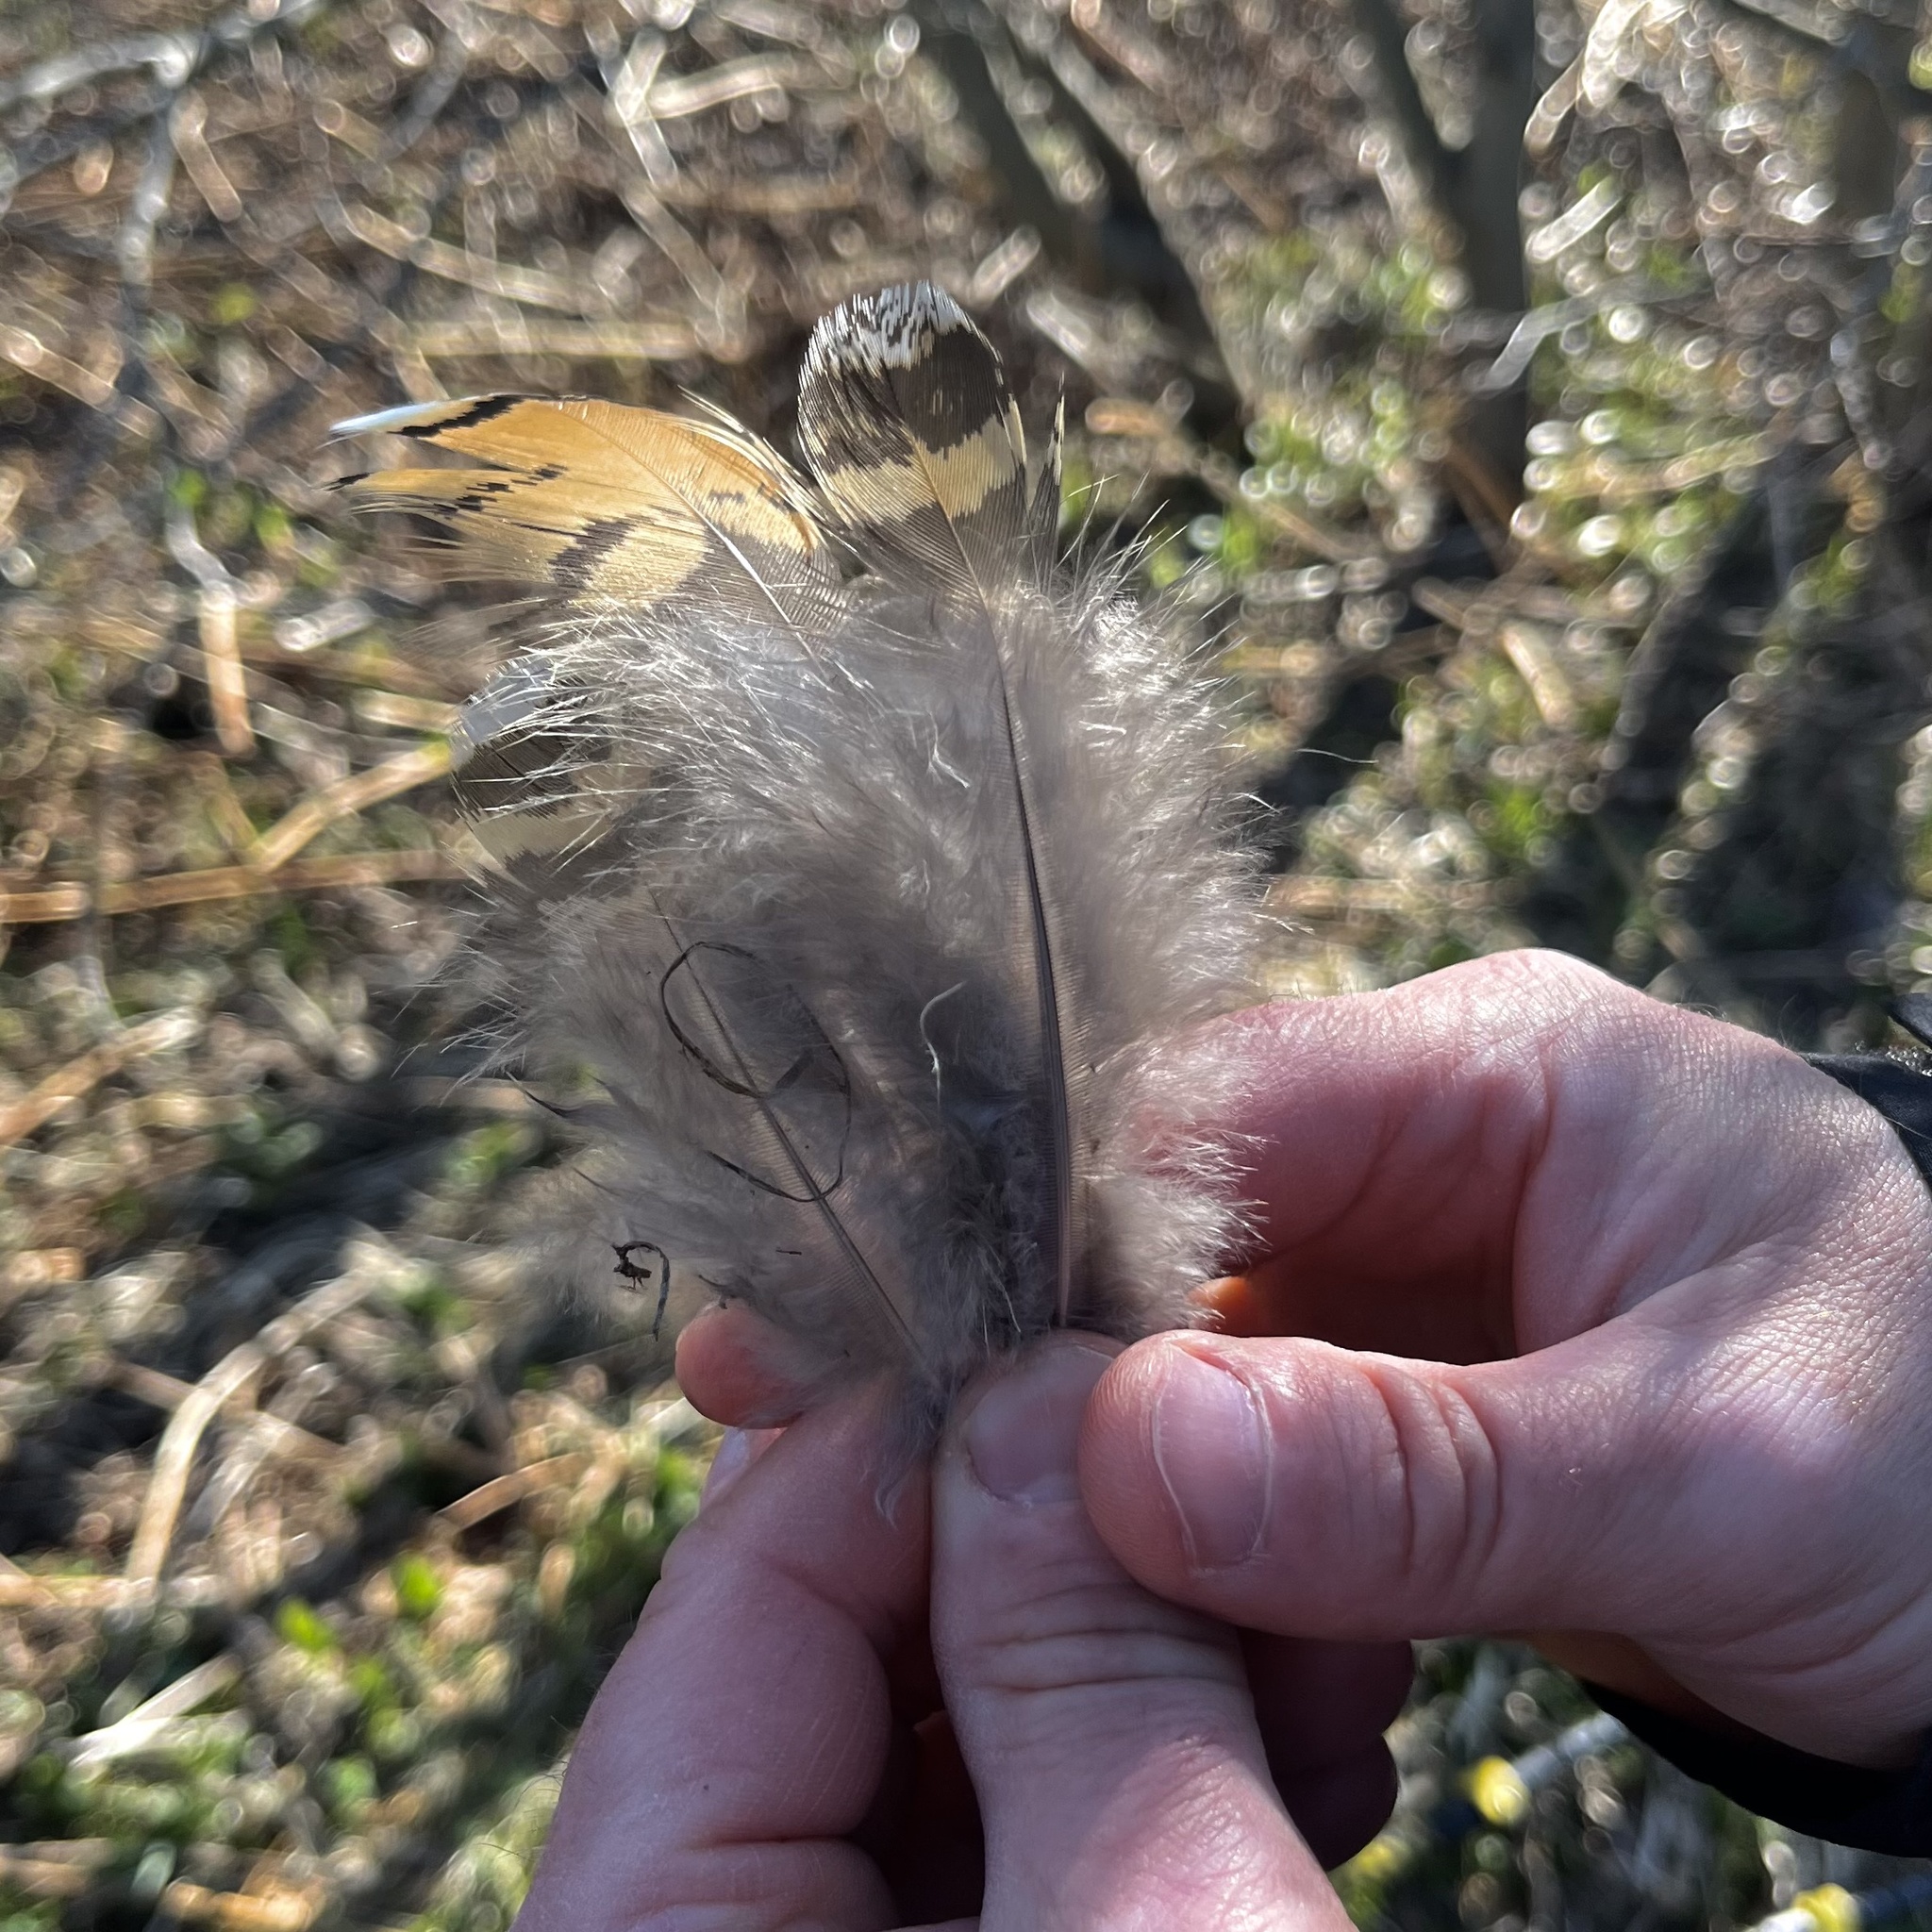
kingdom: Animalia
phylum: Chordata
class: Aves
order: Galliformes
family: Phasianidae
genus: Tetrao
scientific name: Tetrao urogallus
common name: Western capercaillie
